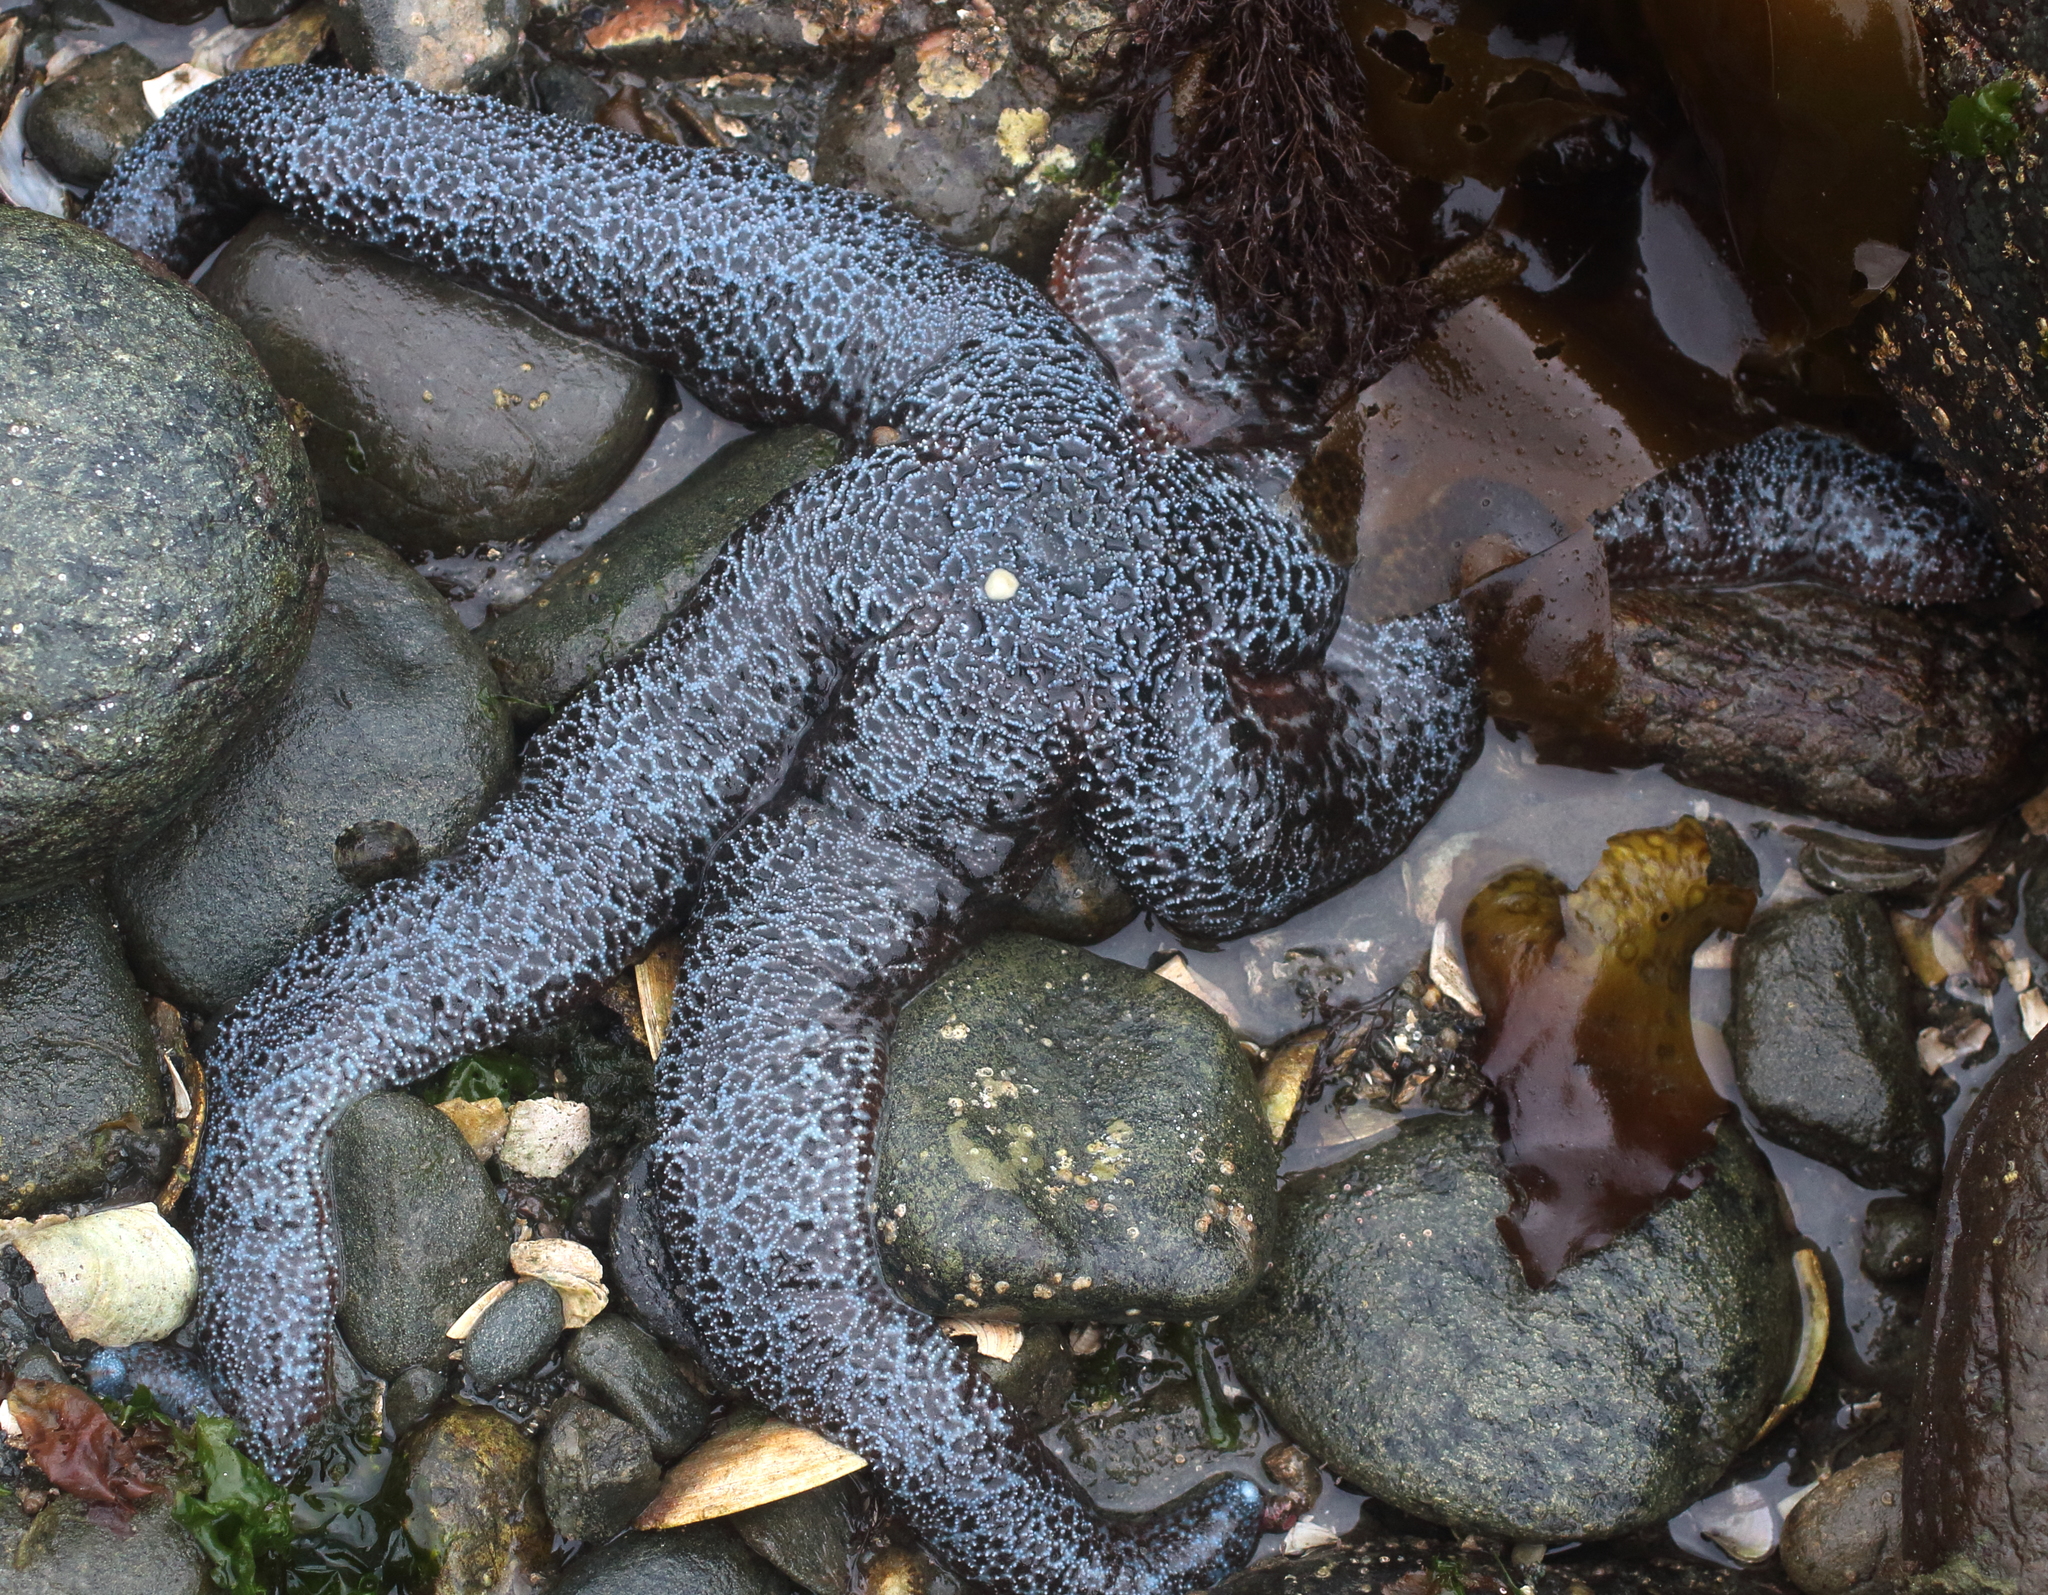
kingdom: Animalia
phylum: Echinodermata
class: Asteroidea
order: Forcipulatida
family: Asteriidae
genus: Evasterias
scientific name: Evasterias troschelii
